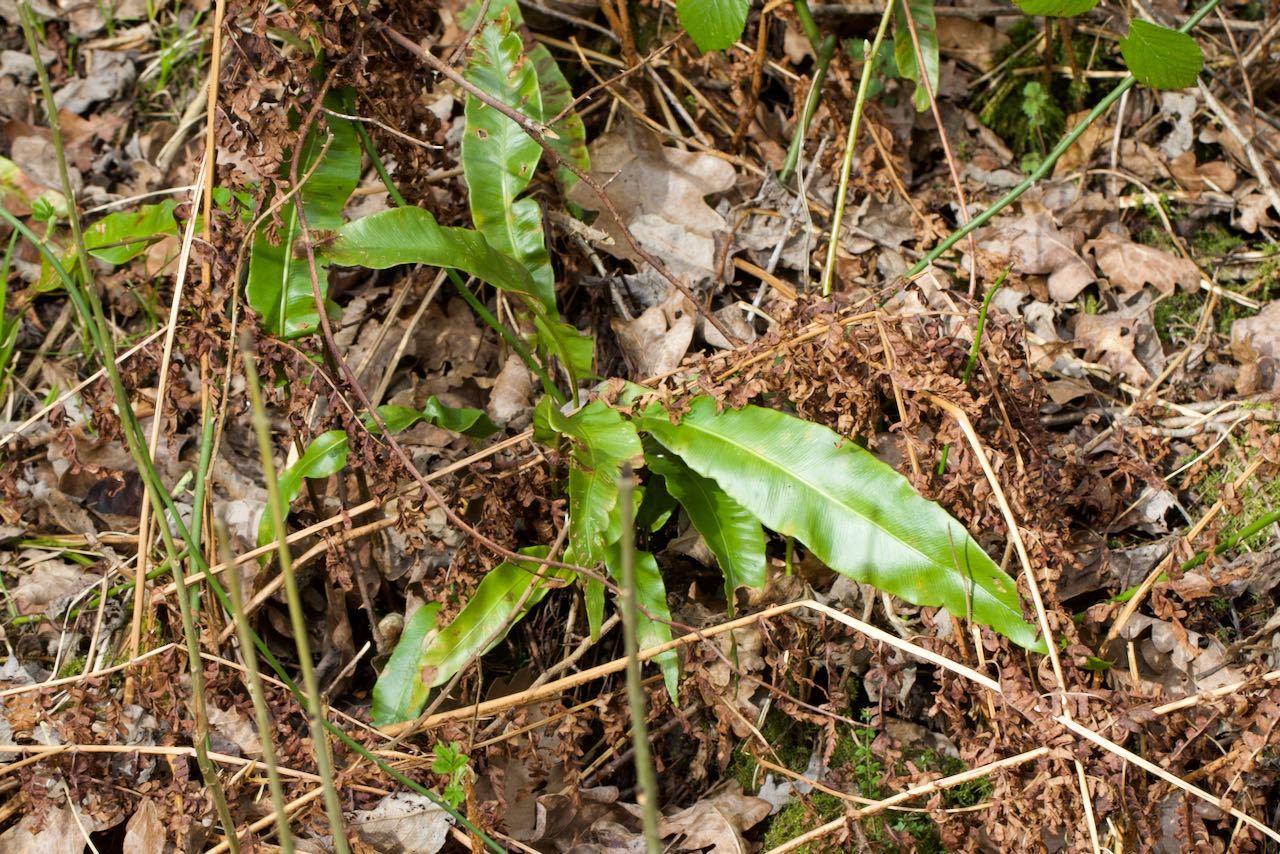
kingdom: Plantae
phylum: Tracheophyta
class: Polypodiopsida
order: Polypodiales
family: Aspleniaceae
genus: Asplenium
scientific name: Asplenium scolopendrium
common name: Hart's-tongue fern
